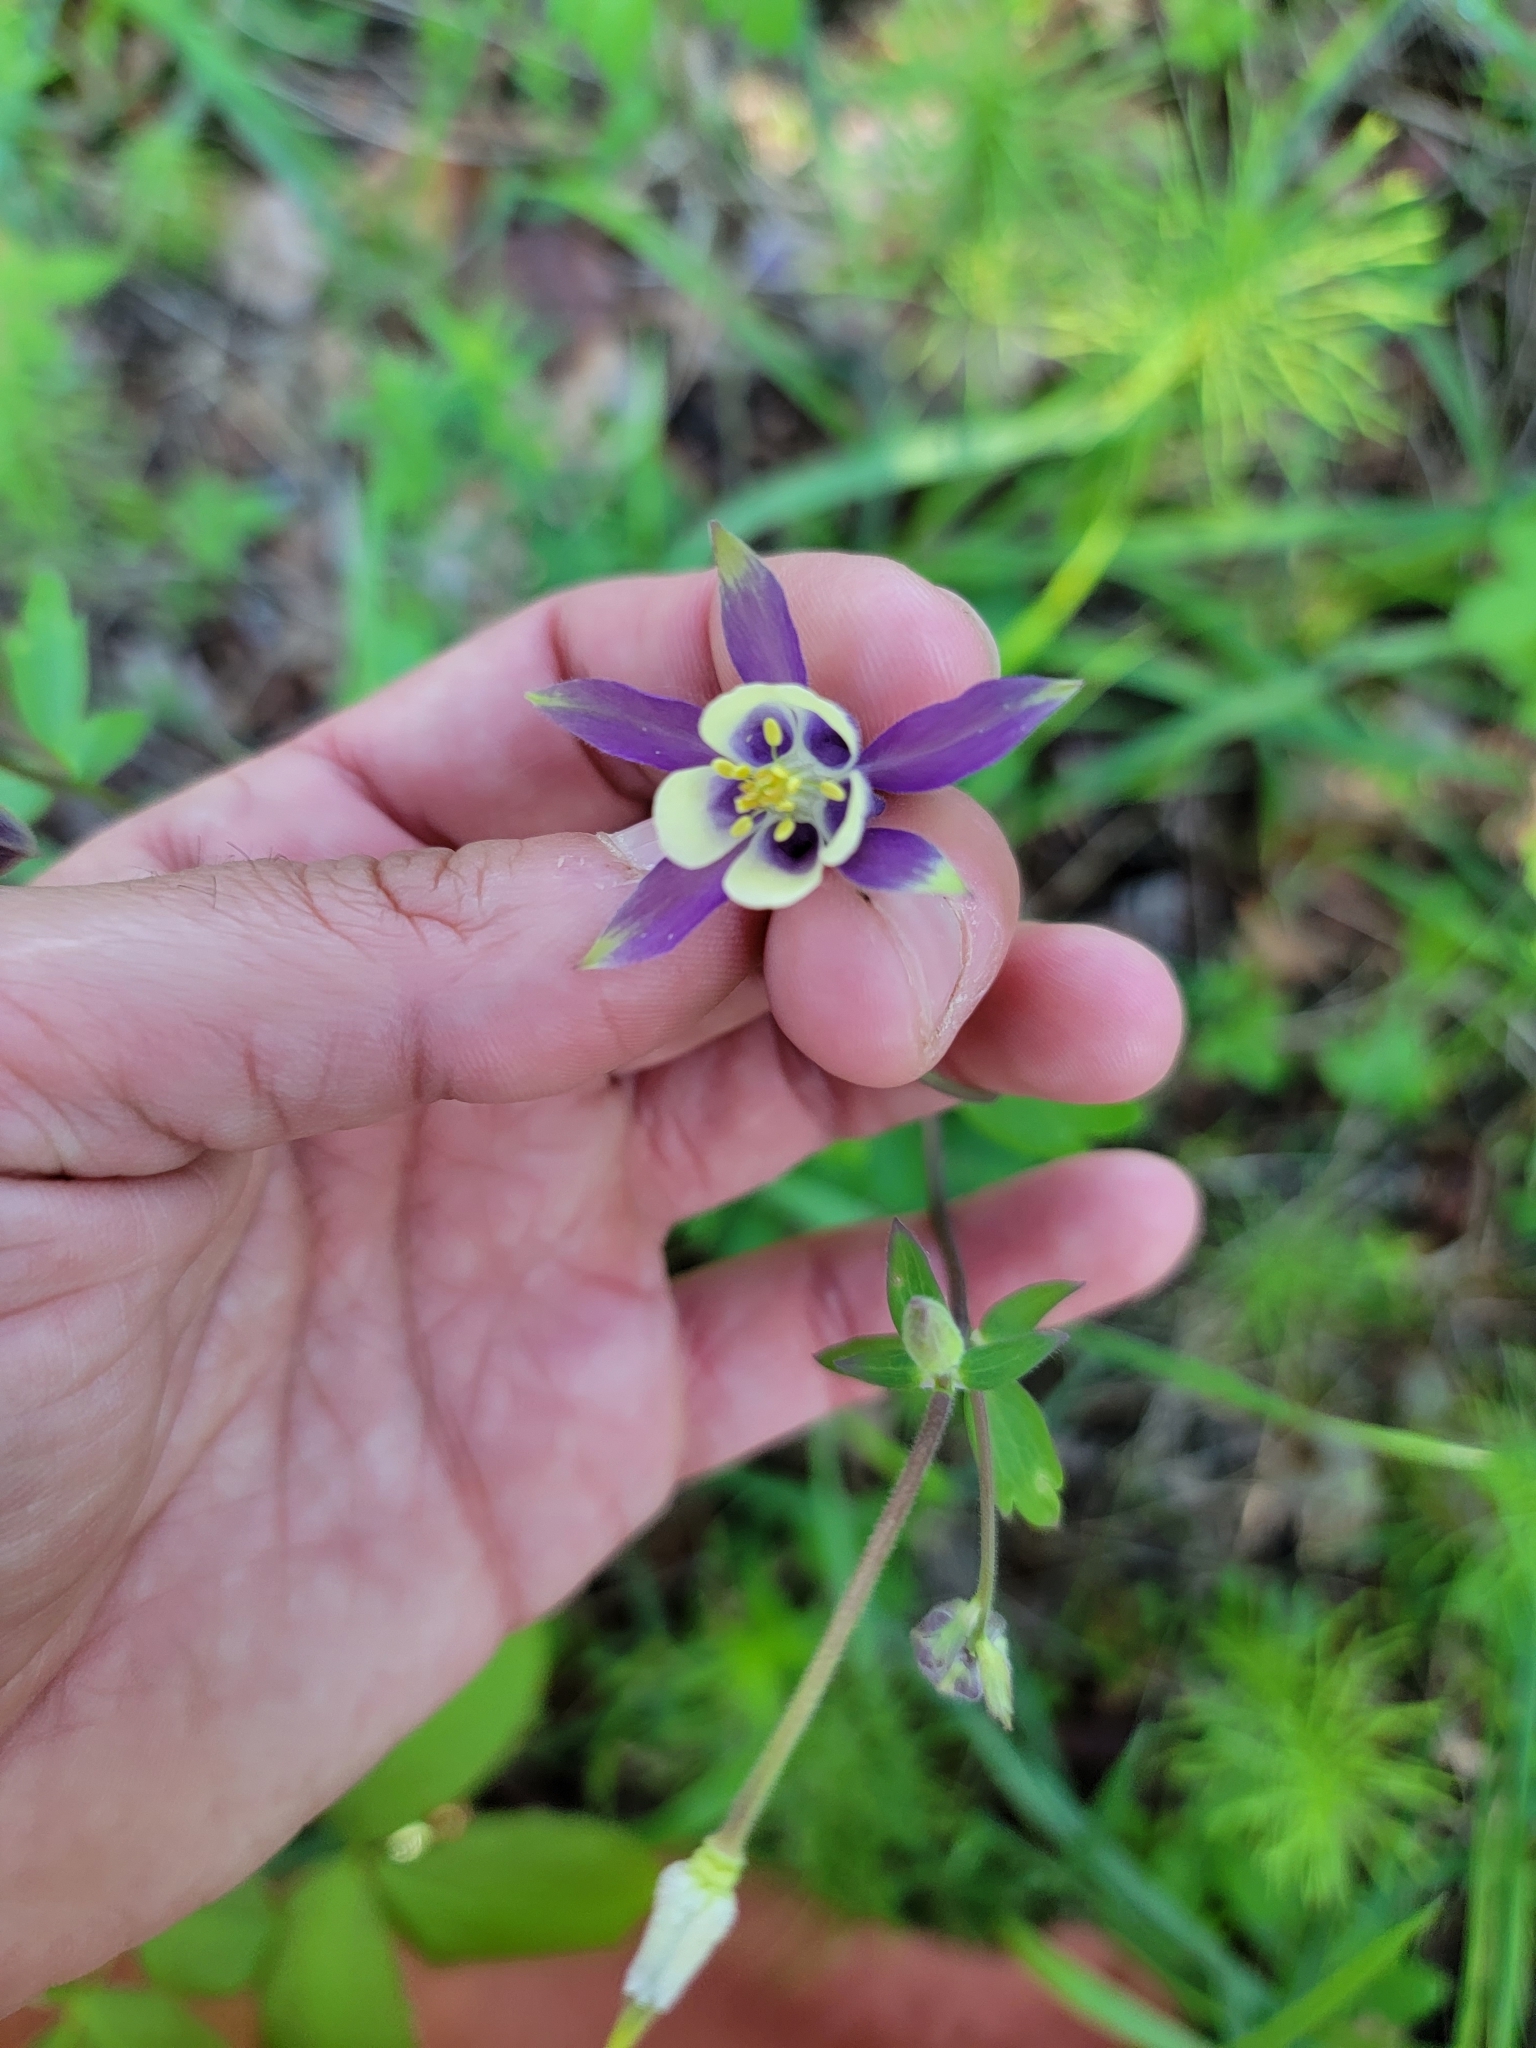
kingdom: Plantae
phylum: Tracheophyta
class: Magnoliopsida
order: Ranunculales
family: Ranunculaceae
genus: Aquilegia
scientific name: Aquilegia brevistyla
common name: Yukon columbine
